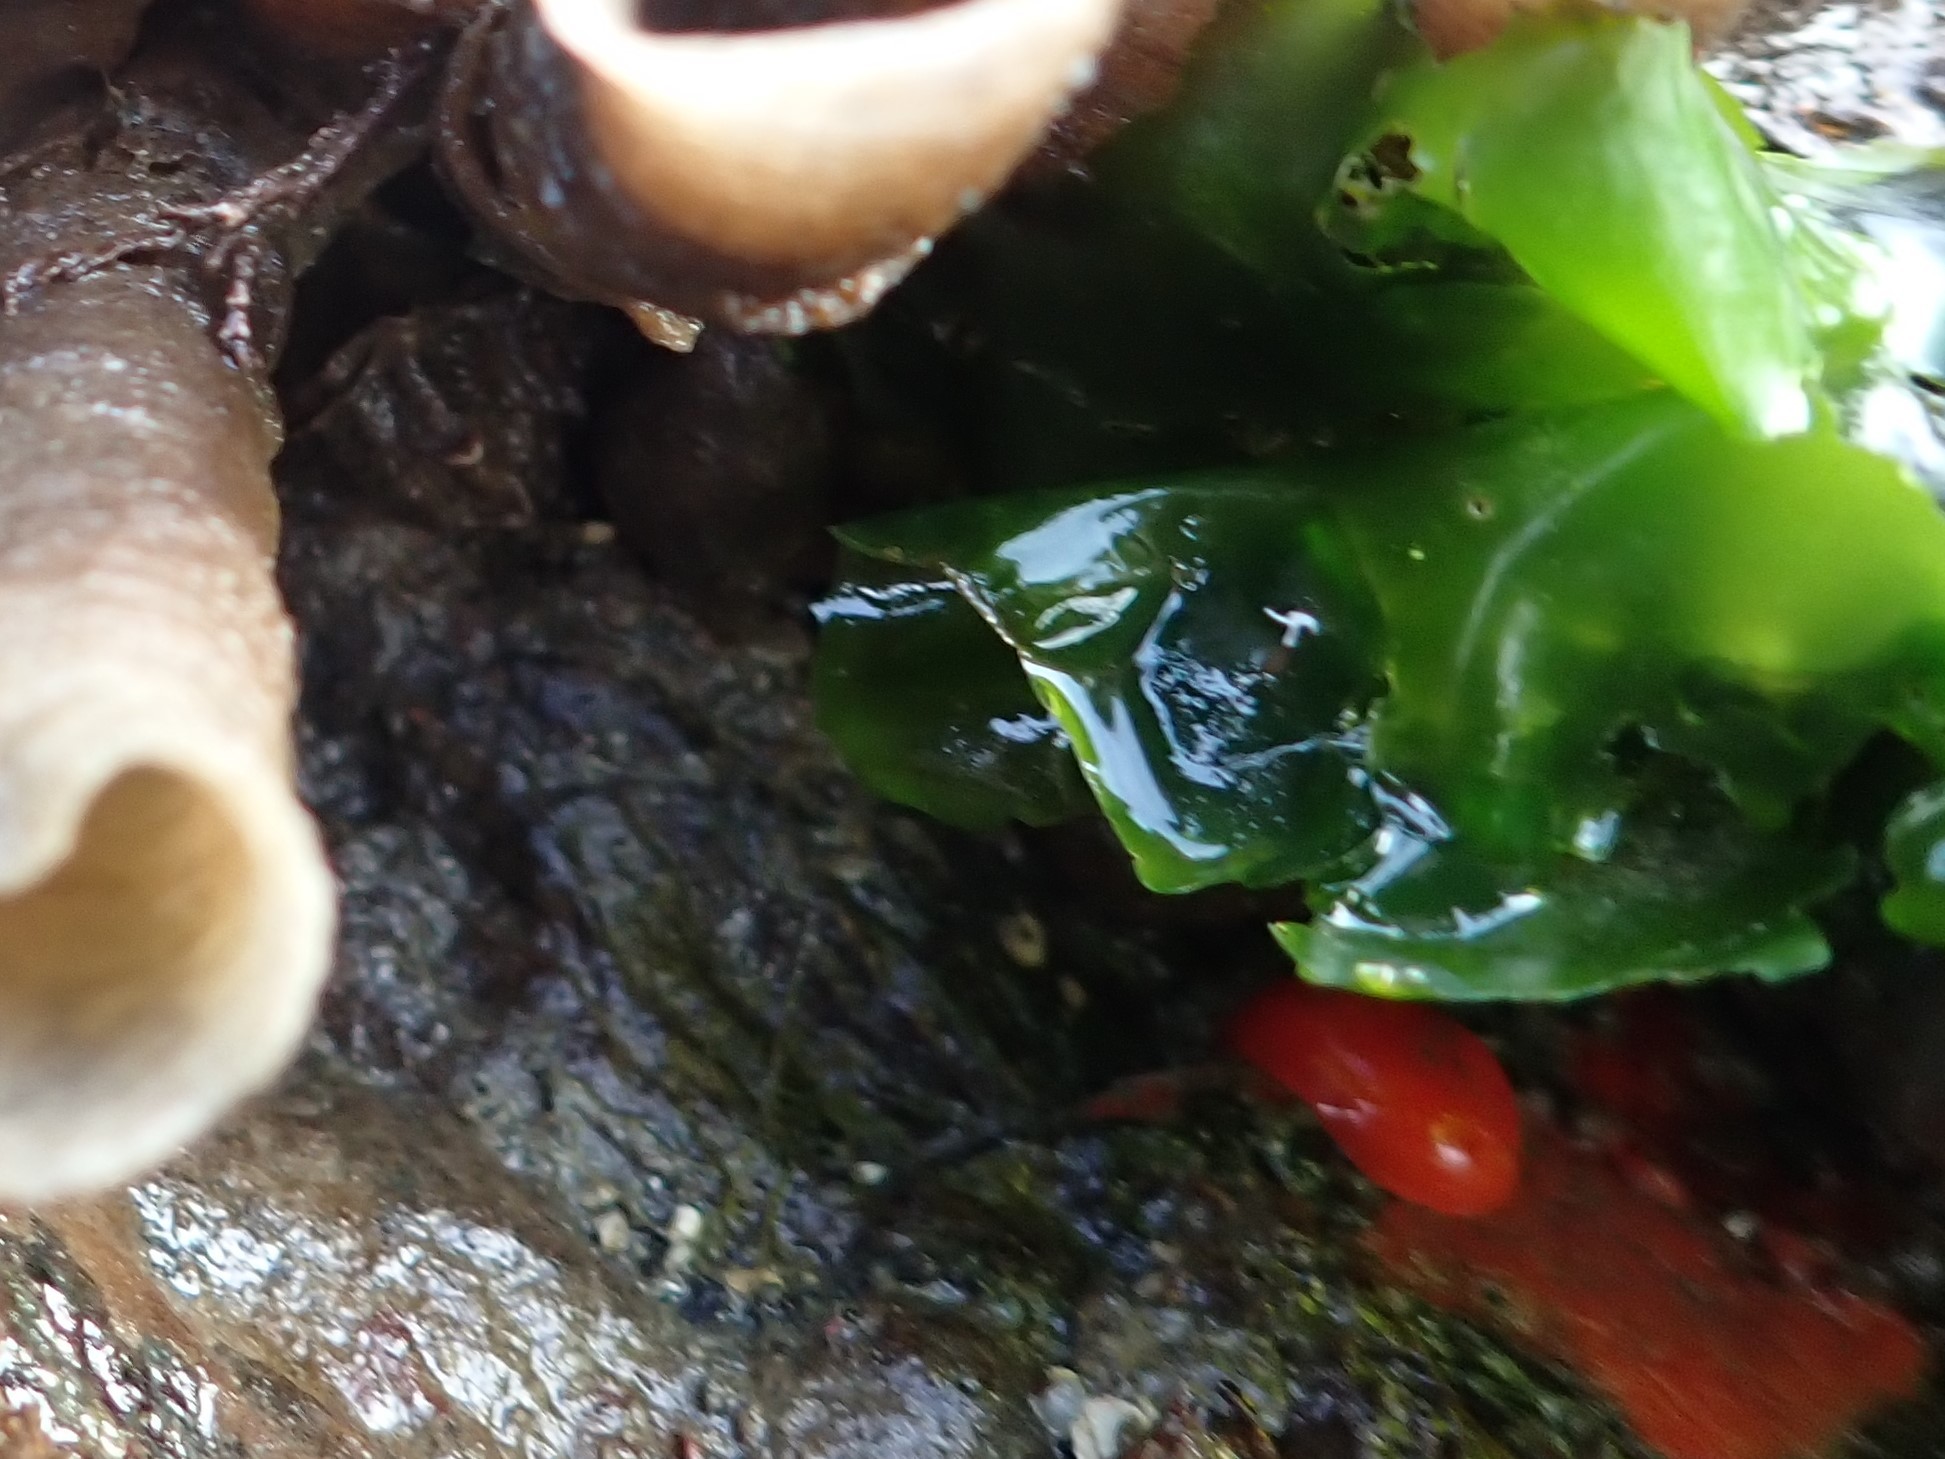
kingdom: Animalia
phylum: Mollusca
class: Gastropoda
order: Nudibranchia
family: Discodorididae
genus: Rostanga
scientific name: Rostanga pulchra
